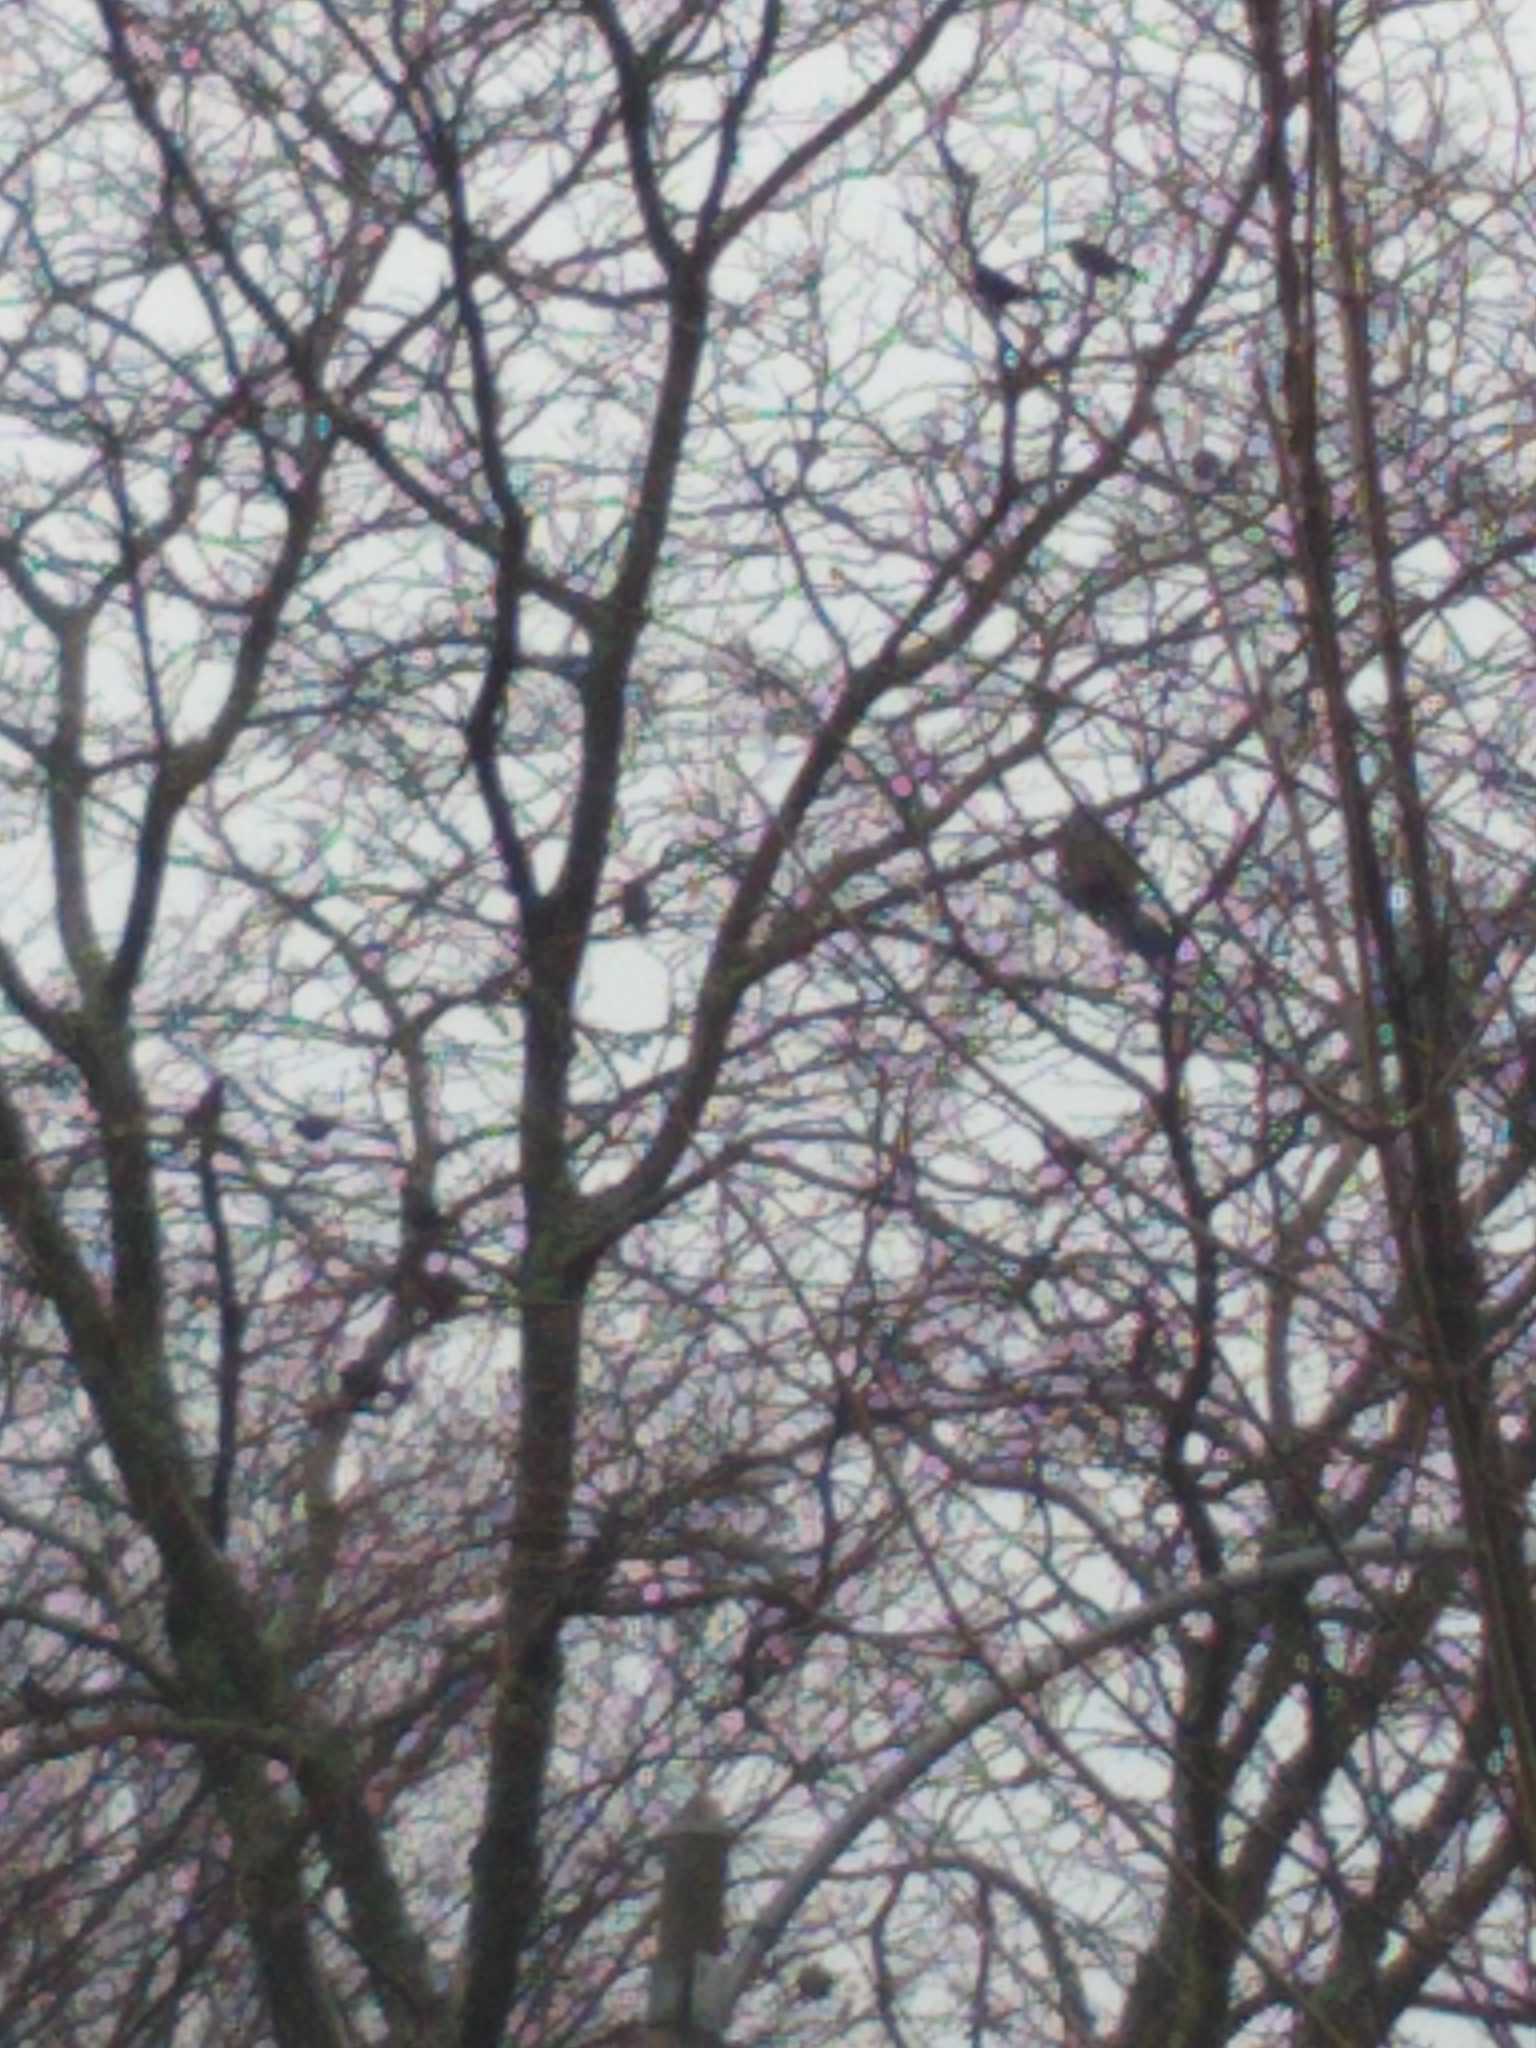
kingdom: Animalia
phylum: Chordata
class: Aves
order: Passeriformes
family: Icteridae
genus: Quiscalus
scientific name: Quiscalus quiscula
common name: Common grackle
